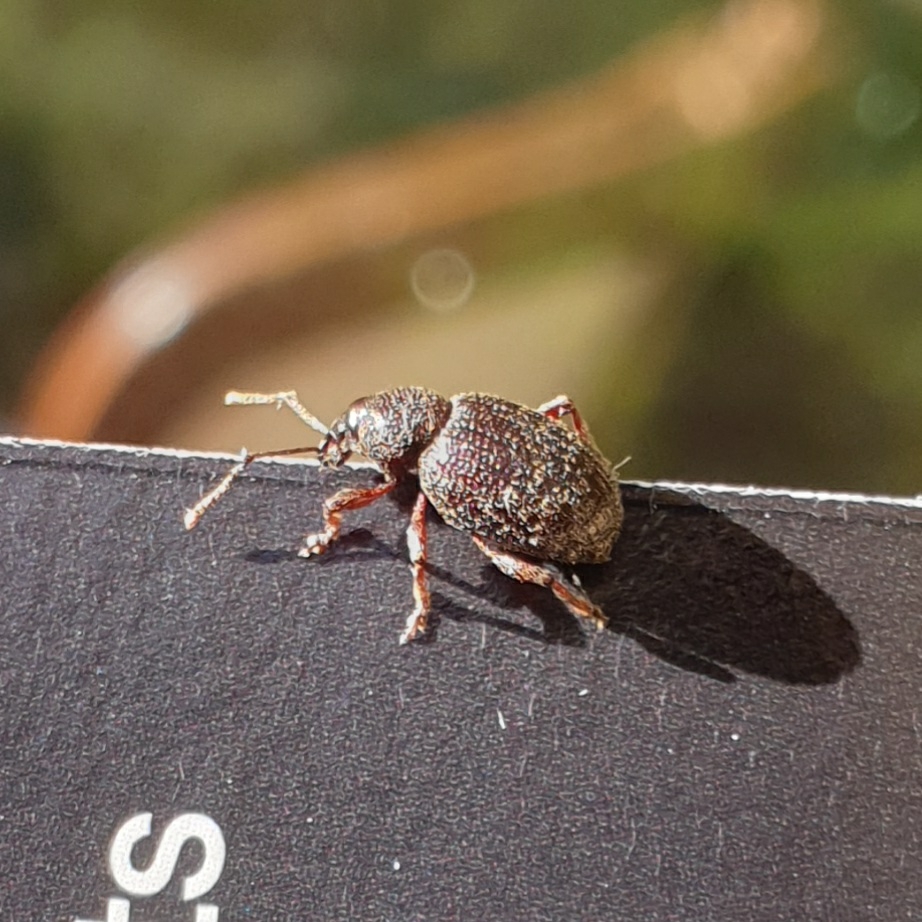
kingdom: Animalia
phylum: Arthropoda
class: Insecta
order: Coleoptera
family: Curculionidae
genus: Otiorhynchus
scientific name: Otiorhynchus cribricollis
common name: Weevil
